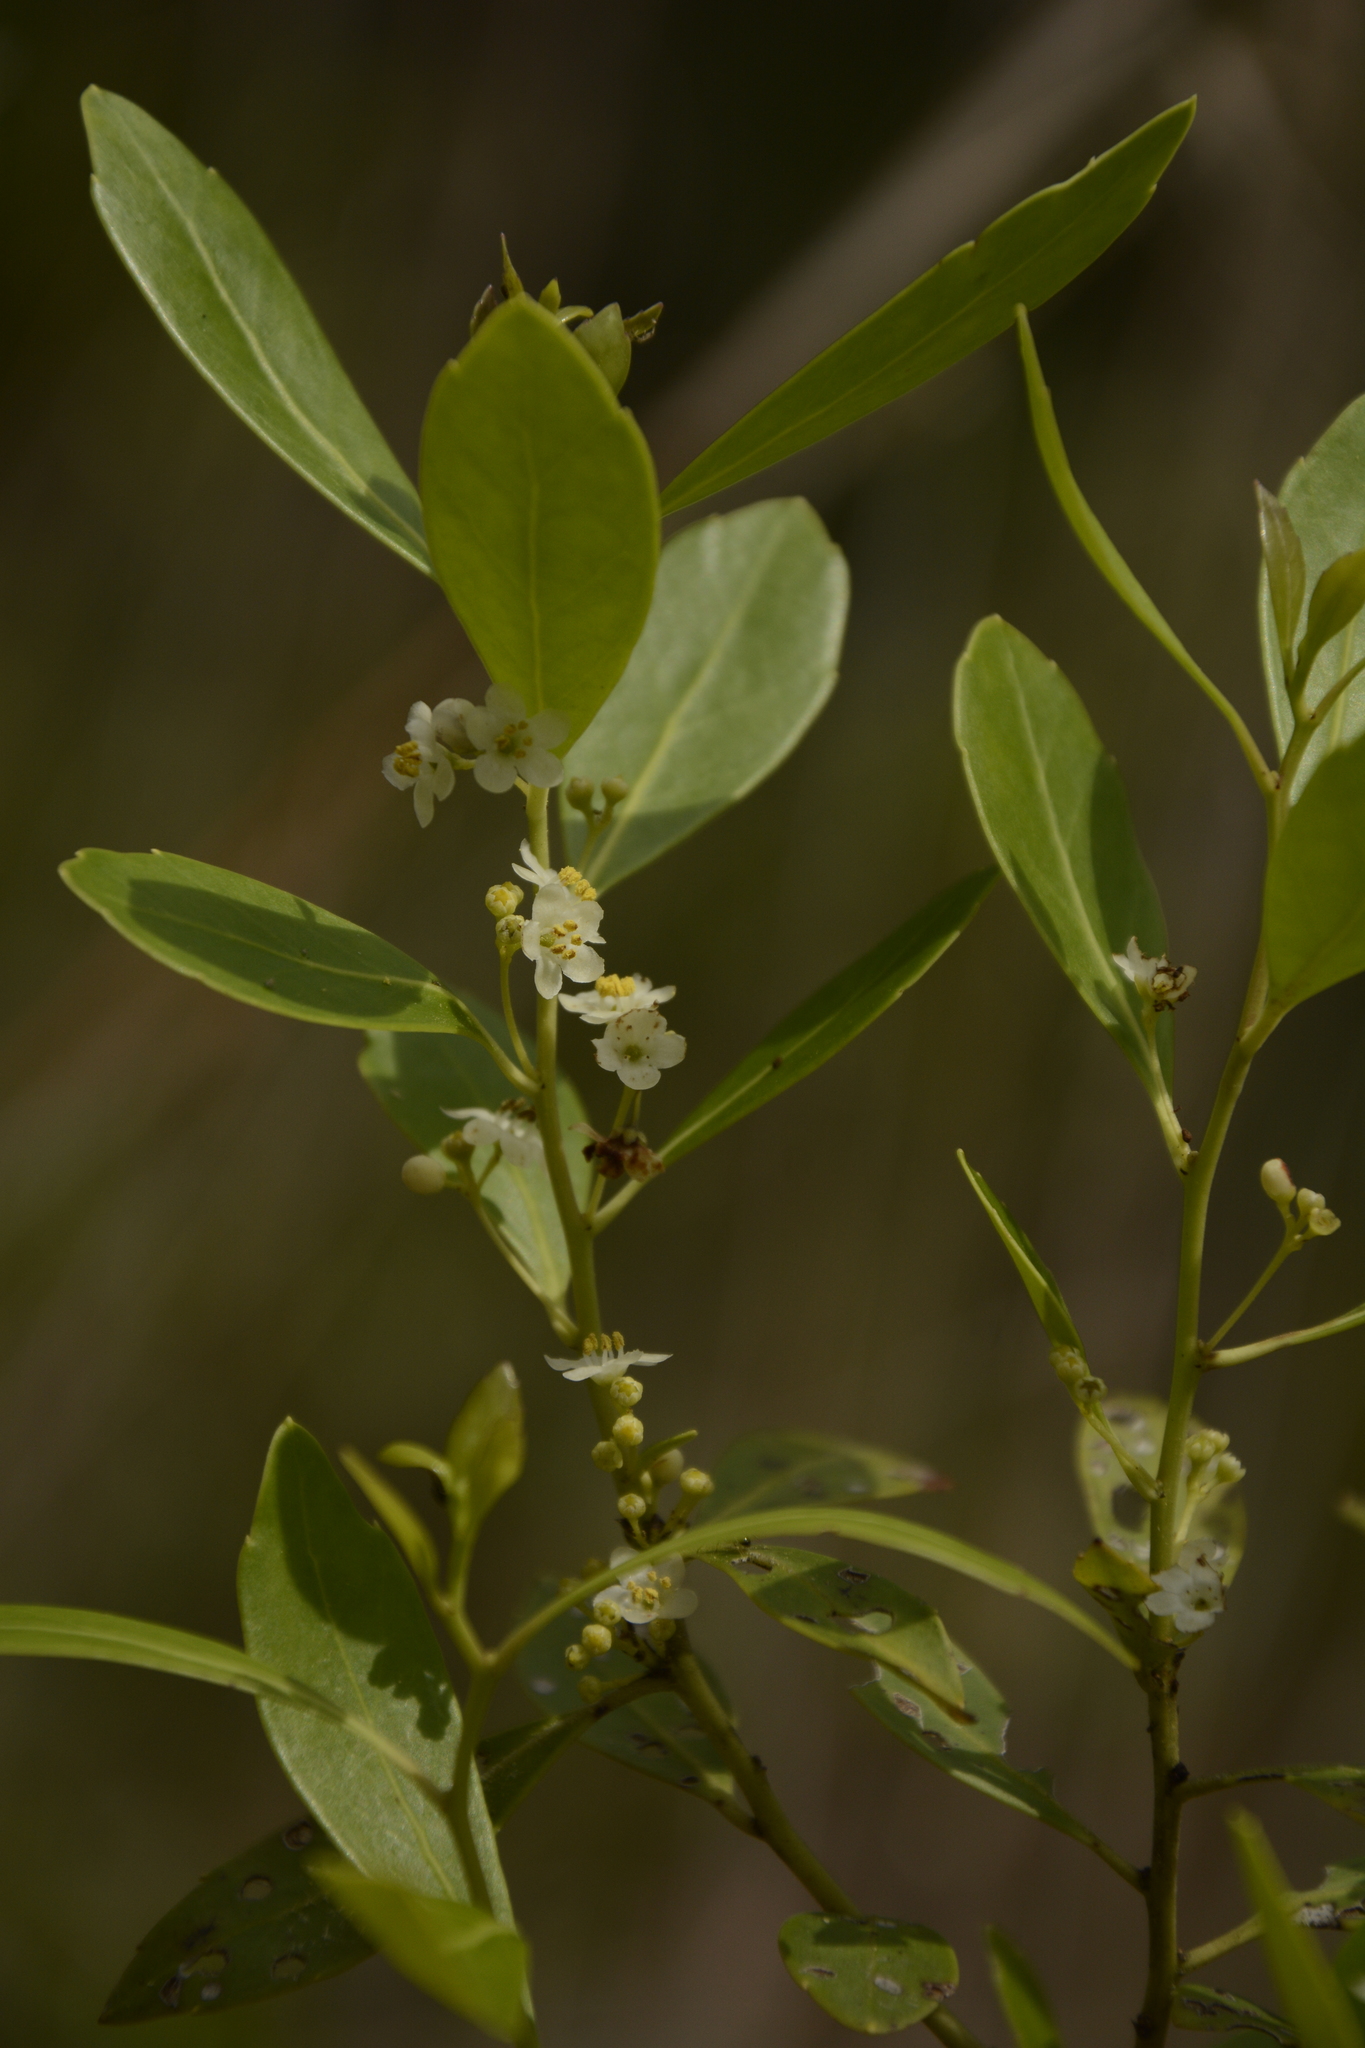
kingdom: Plantae
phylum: Tracheophyta
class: Magnoliopsida
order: Aquifoliales
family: Aquifoliaceae
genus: Ilex
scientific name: Ilex glabra
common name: Bitter gallberry
